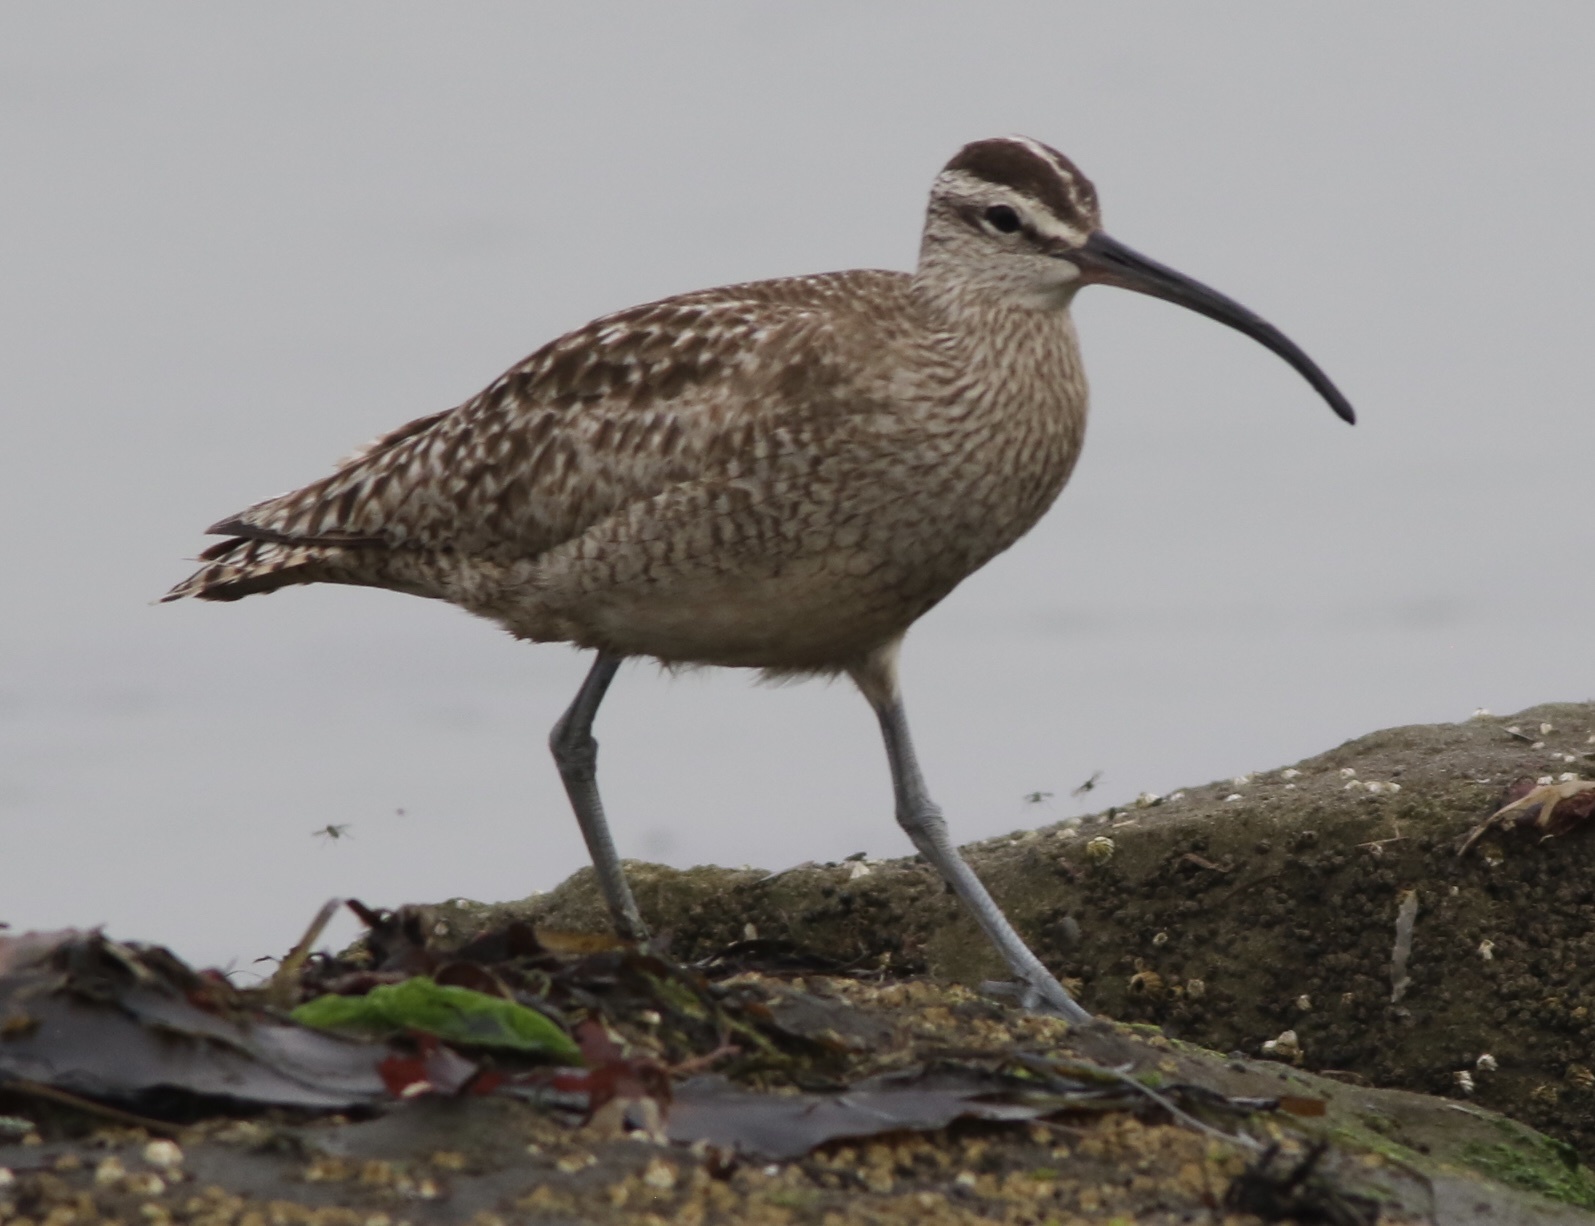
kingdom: Animalia
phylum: Chordata
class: Aves
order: Charadriiformes
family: Scolopacidae
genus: Numenius
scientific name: Numenius phaeopus
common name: Whimbrel
